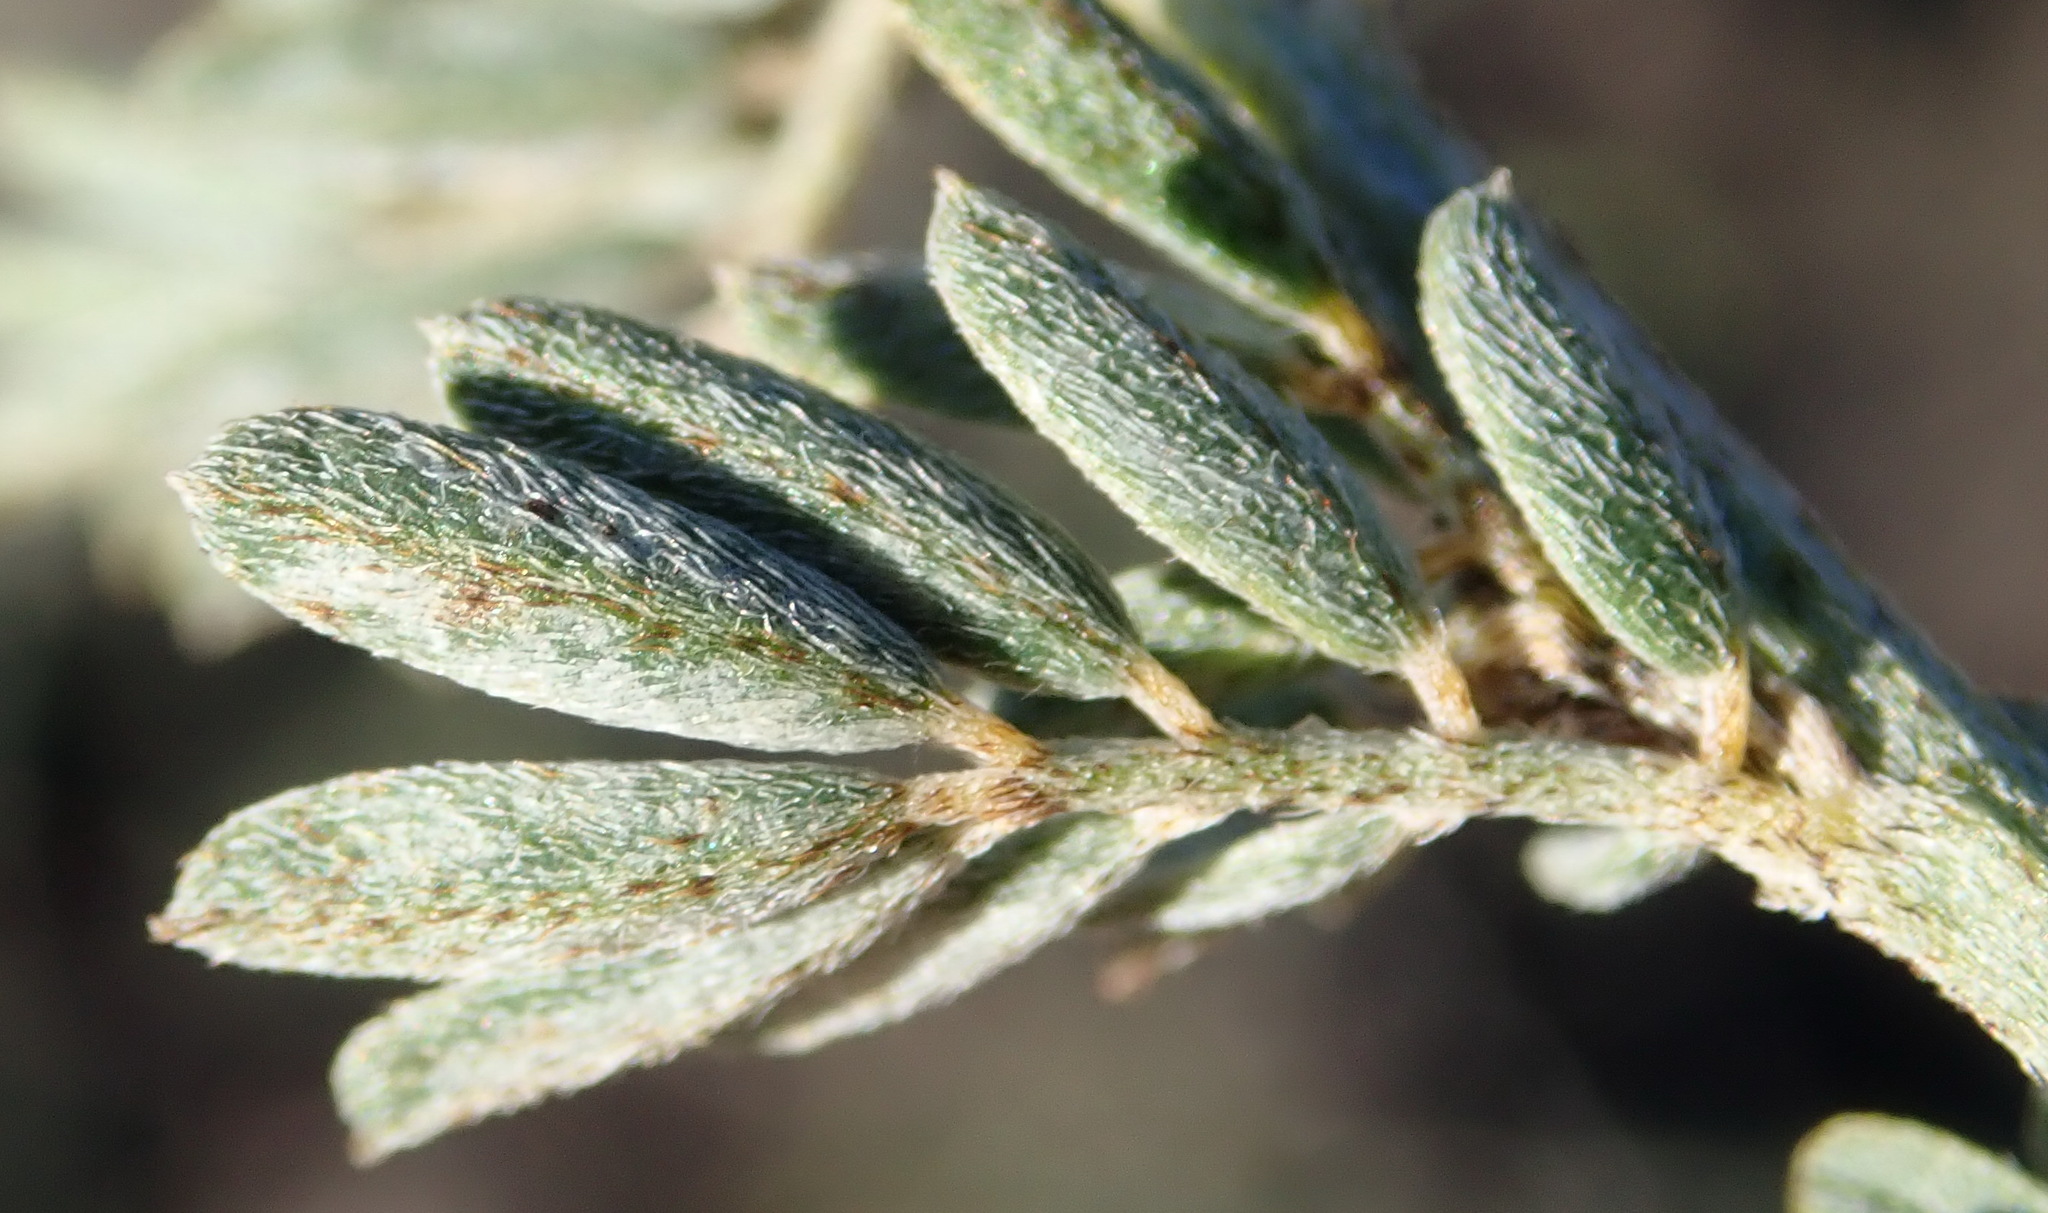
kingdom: Plantae
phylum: Tracheophyta
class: Magnoliopsida
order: Fabales
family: Fabaceae
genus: Indigofera
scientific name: Indigofera verrucosa
